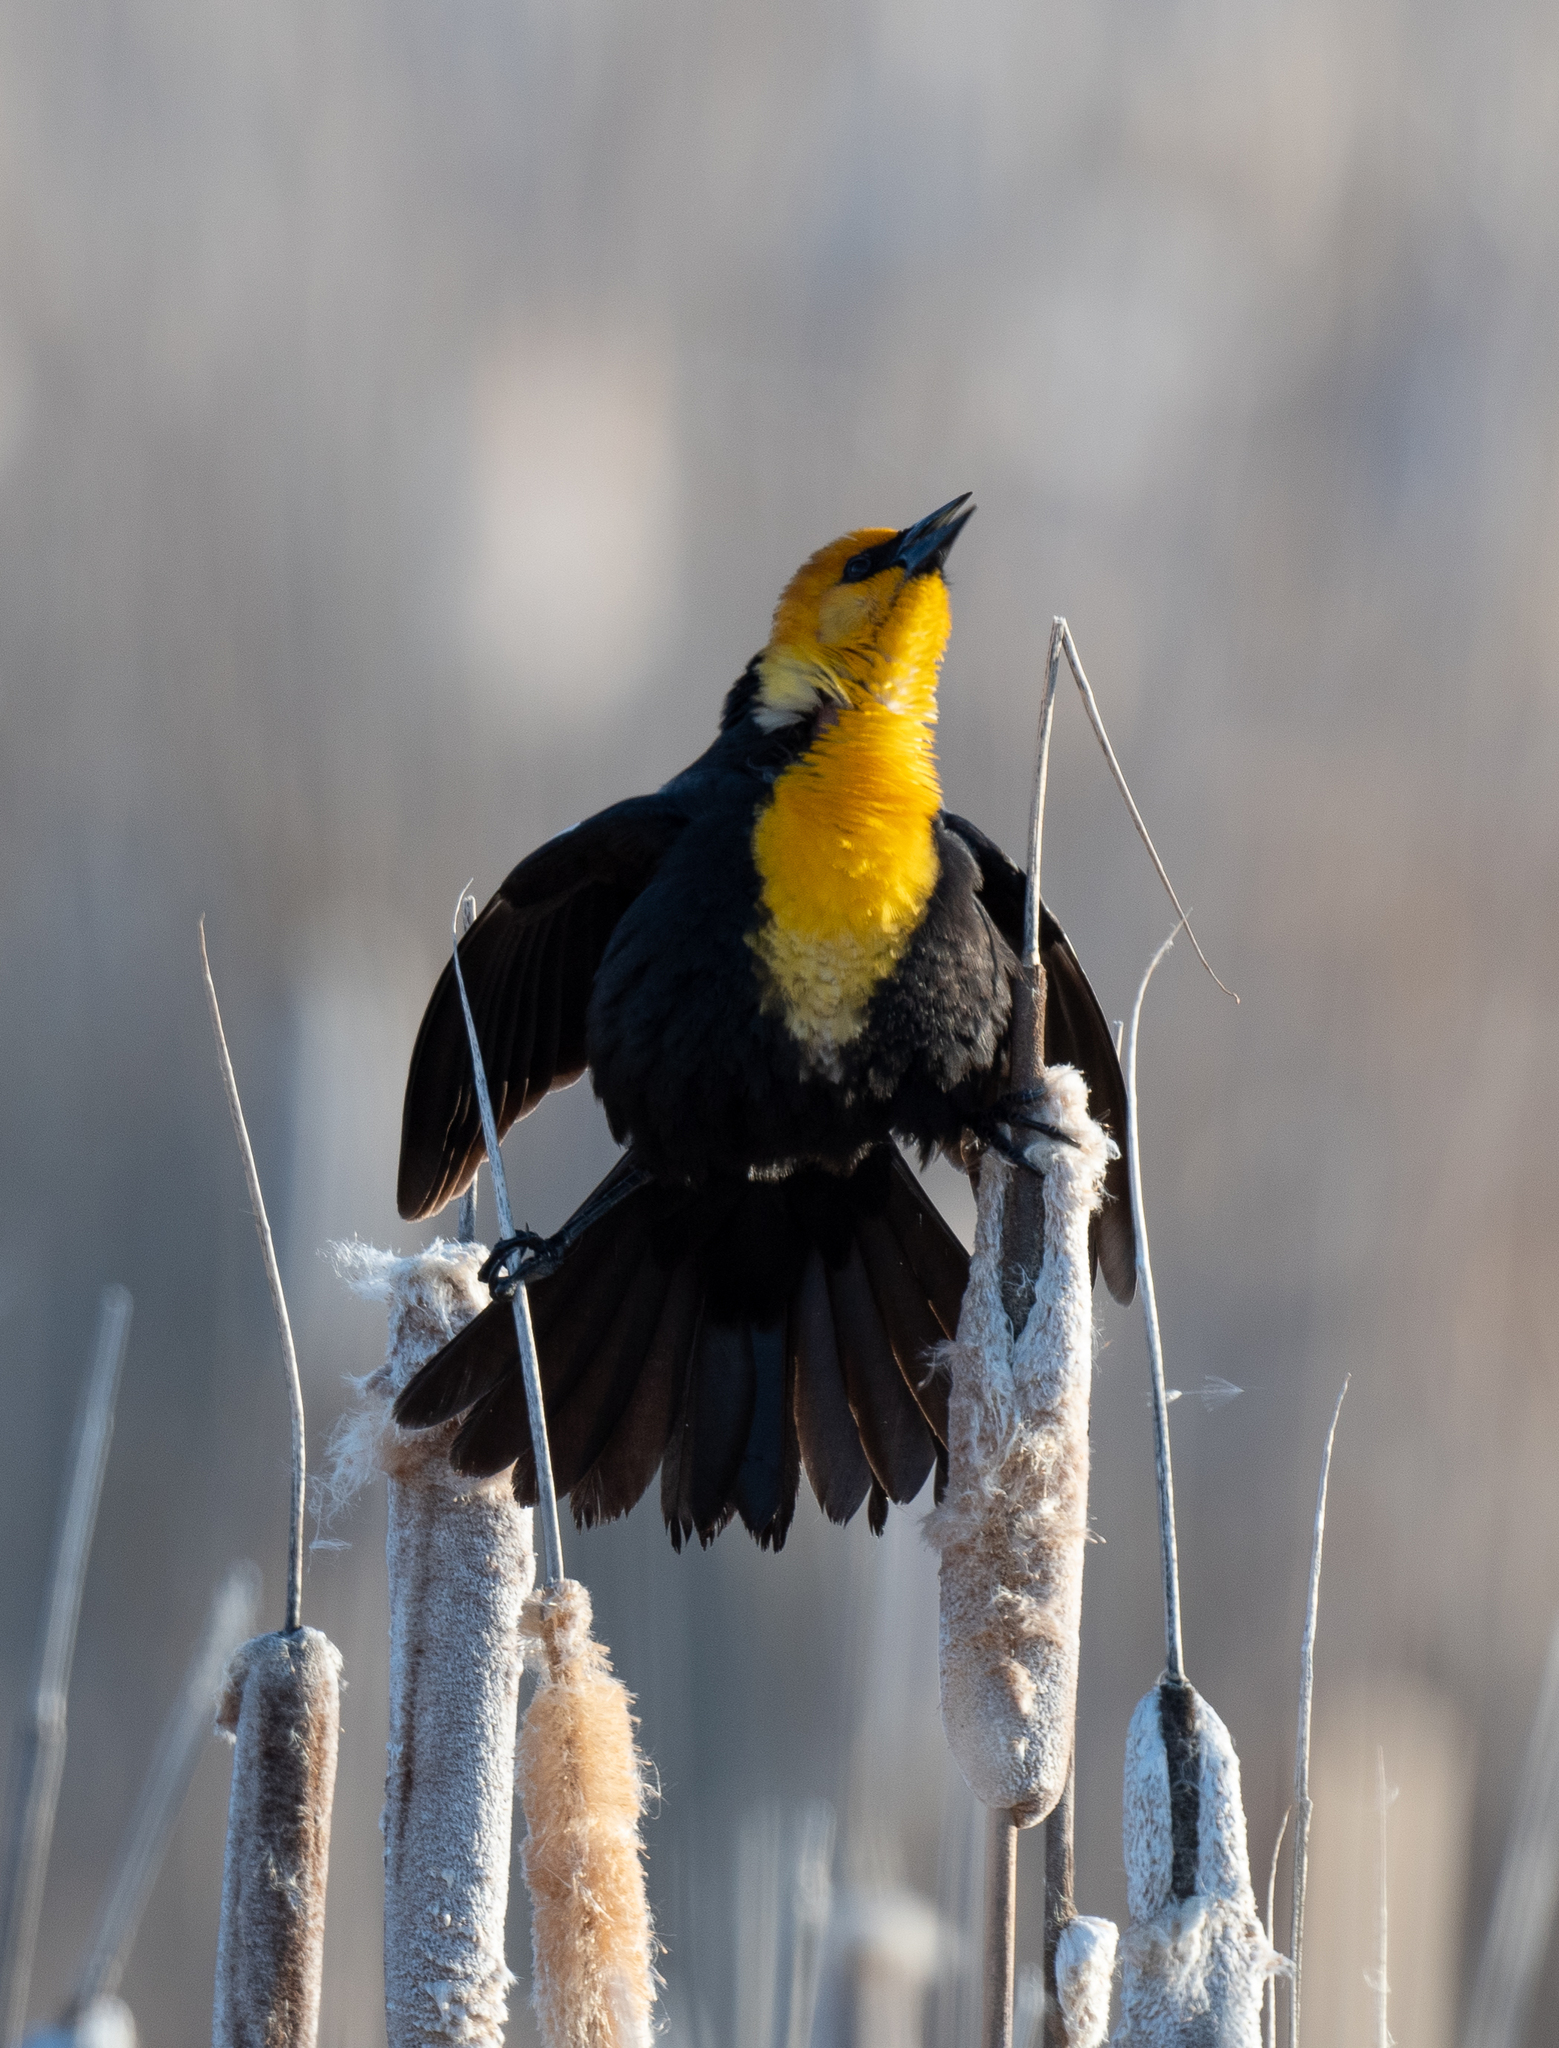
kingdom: Animalia
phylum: Chordata
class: Aves
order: Passeriformes
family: Icteridae
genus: Xanthocephalus
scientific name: Xanthocephalus xanthocephalus
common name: Yellow-headed blackbird
